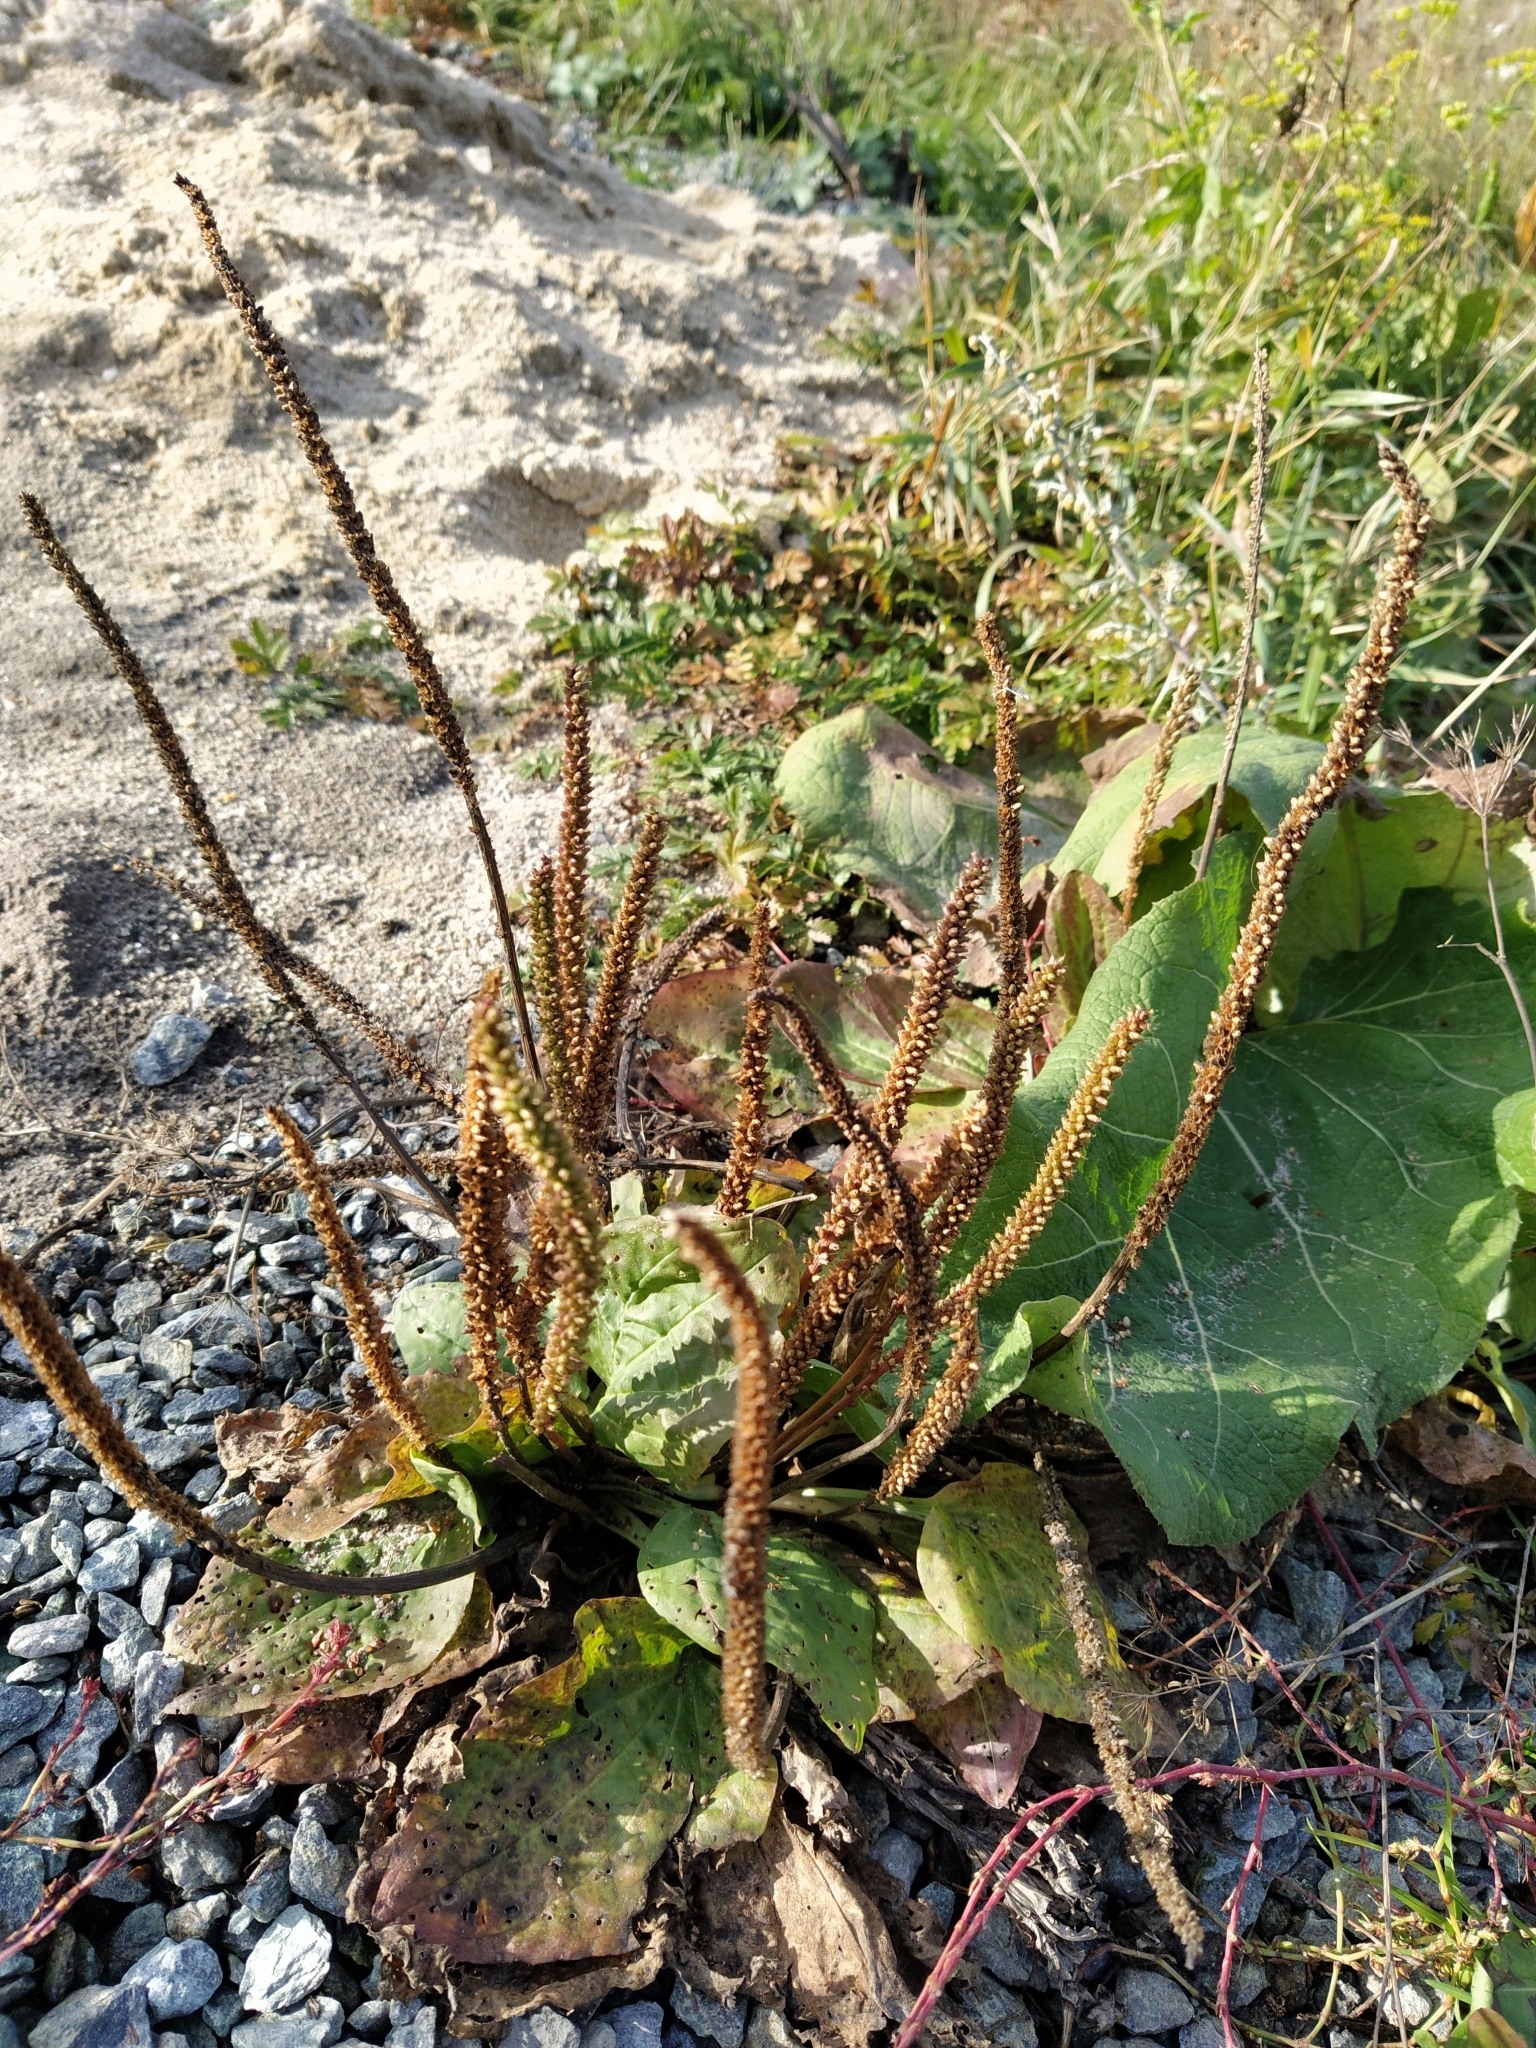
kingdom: Plantae
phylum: Tracheophyta
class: Magnoliopsida
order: Lamiales
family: Plantaginaceae
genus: Plantago
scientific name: Plantago major
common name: Common plantain
